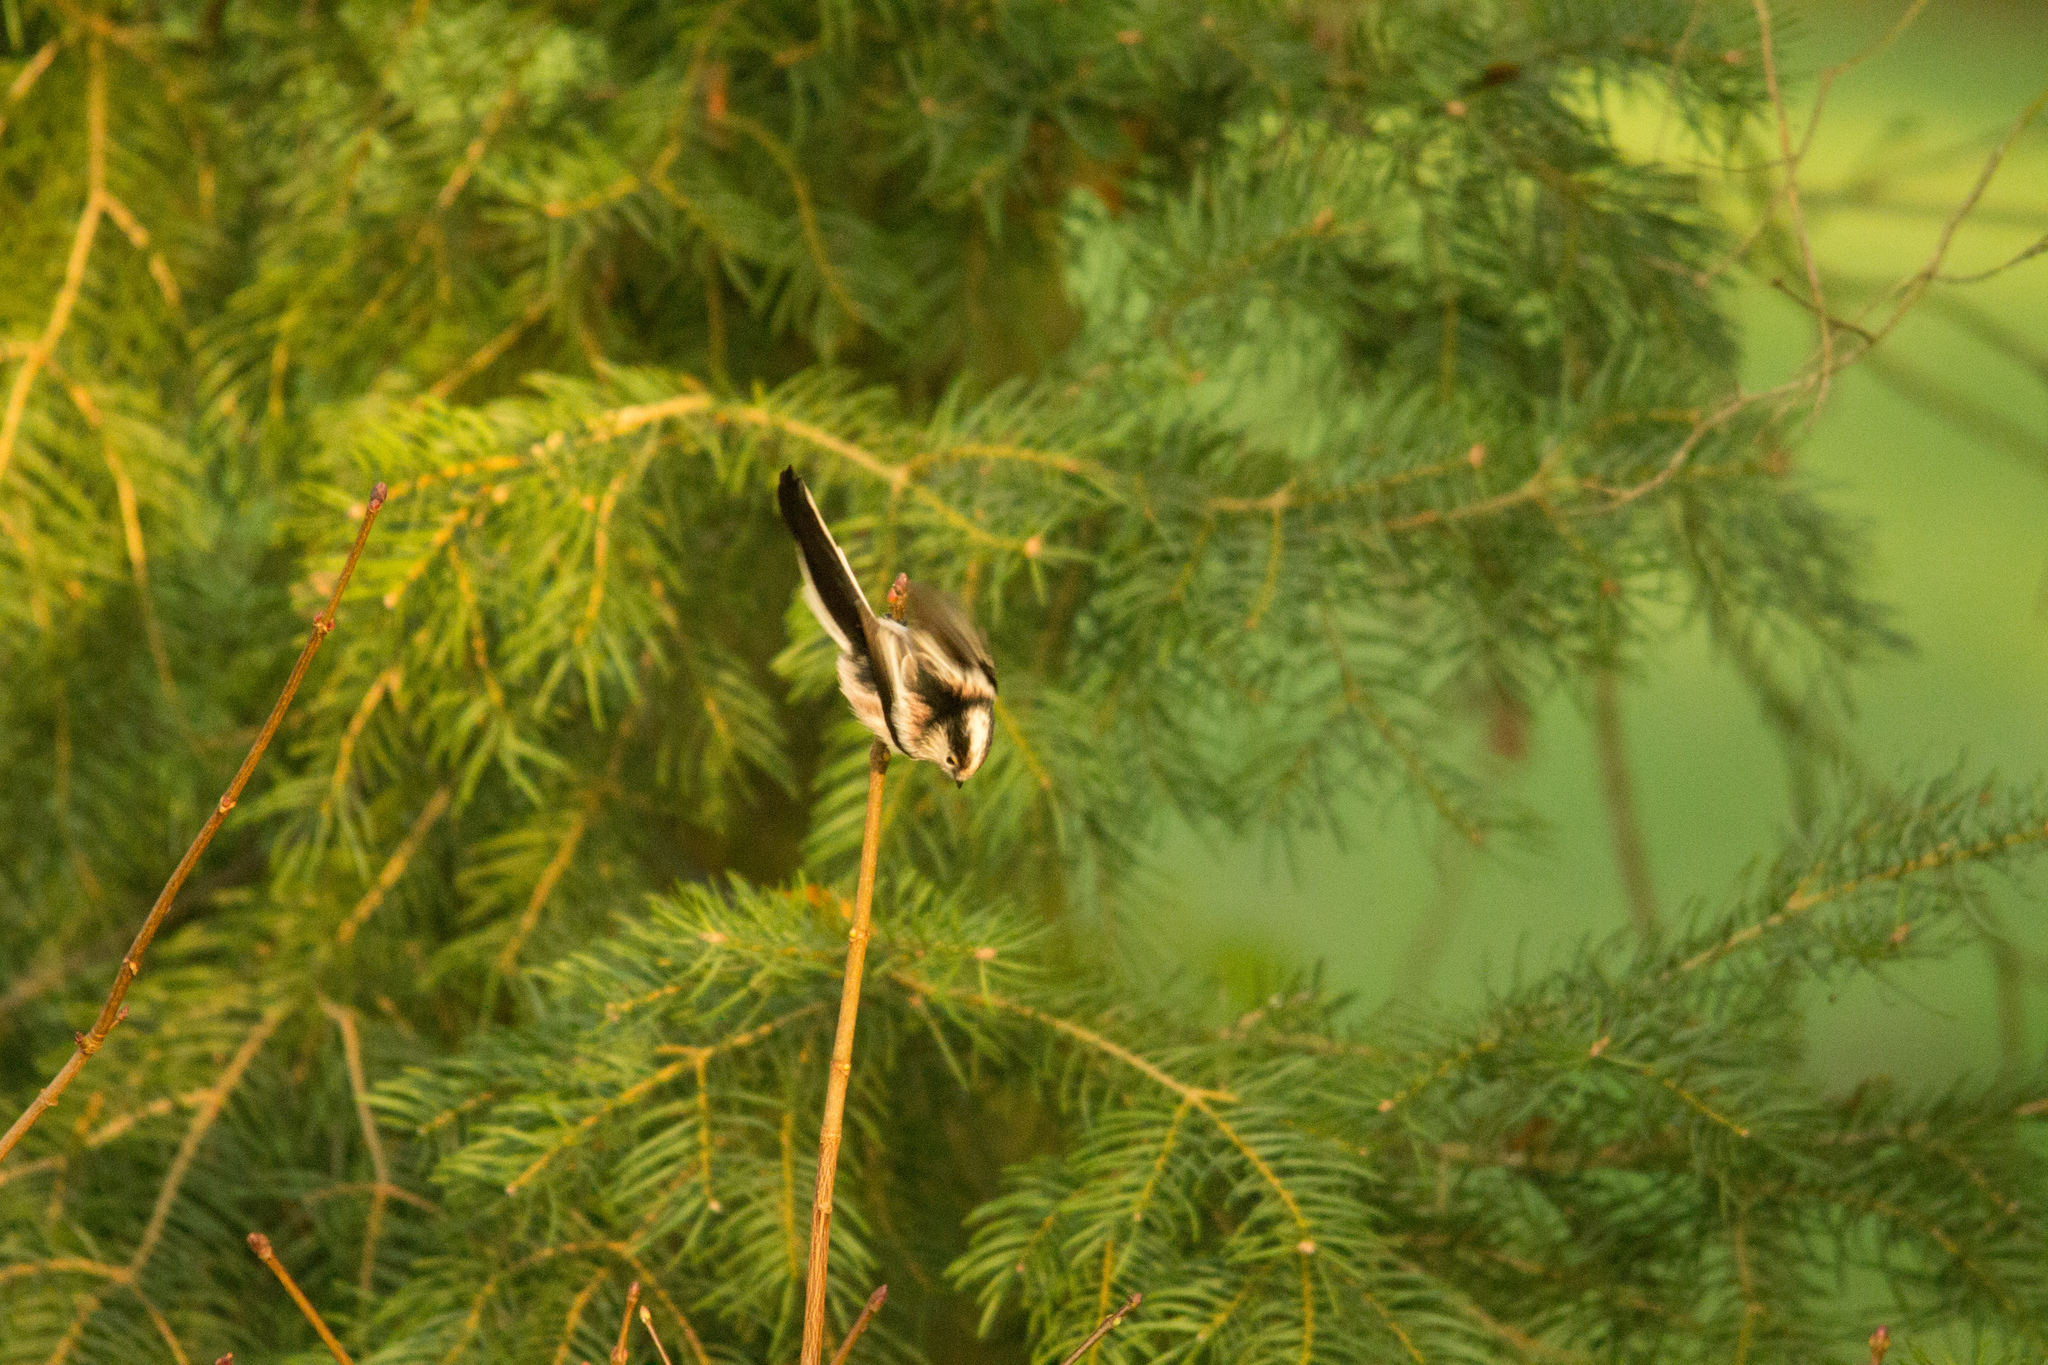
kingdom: Animalia
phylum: Chordata
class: Aves
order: Passeriformes
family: Aegithalidae
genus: Aegithalos
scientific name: Aegithalos caudatus
